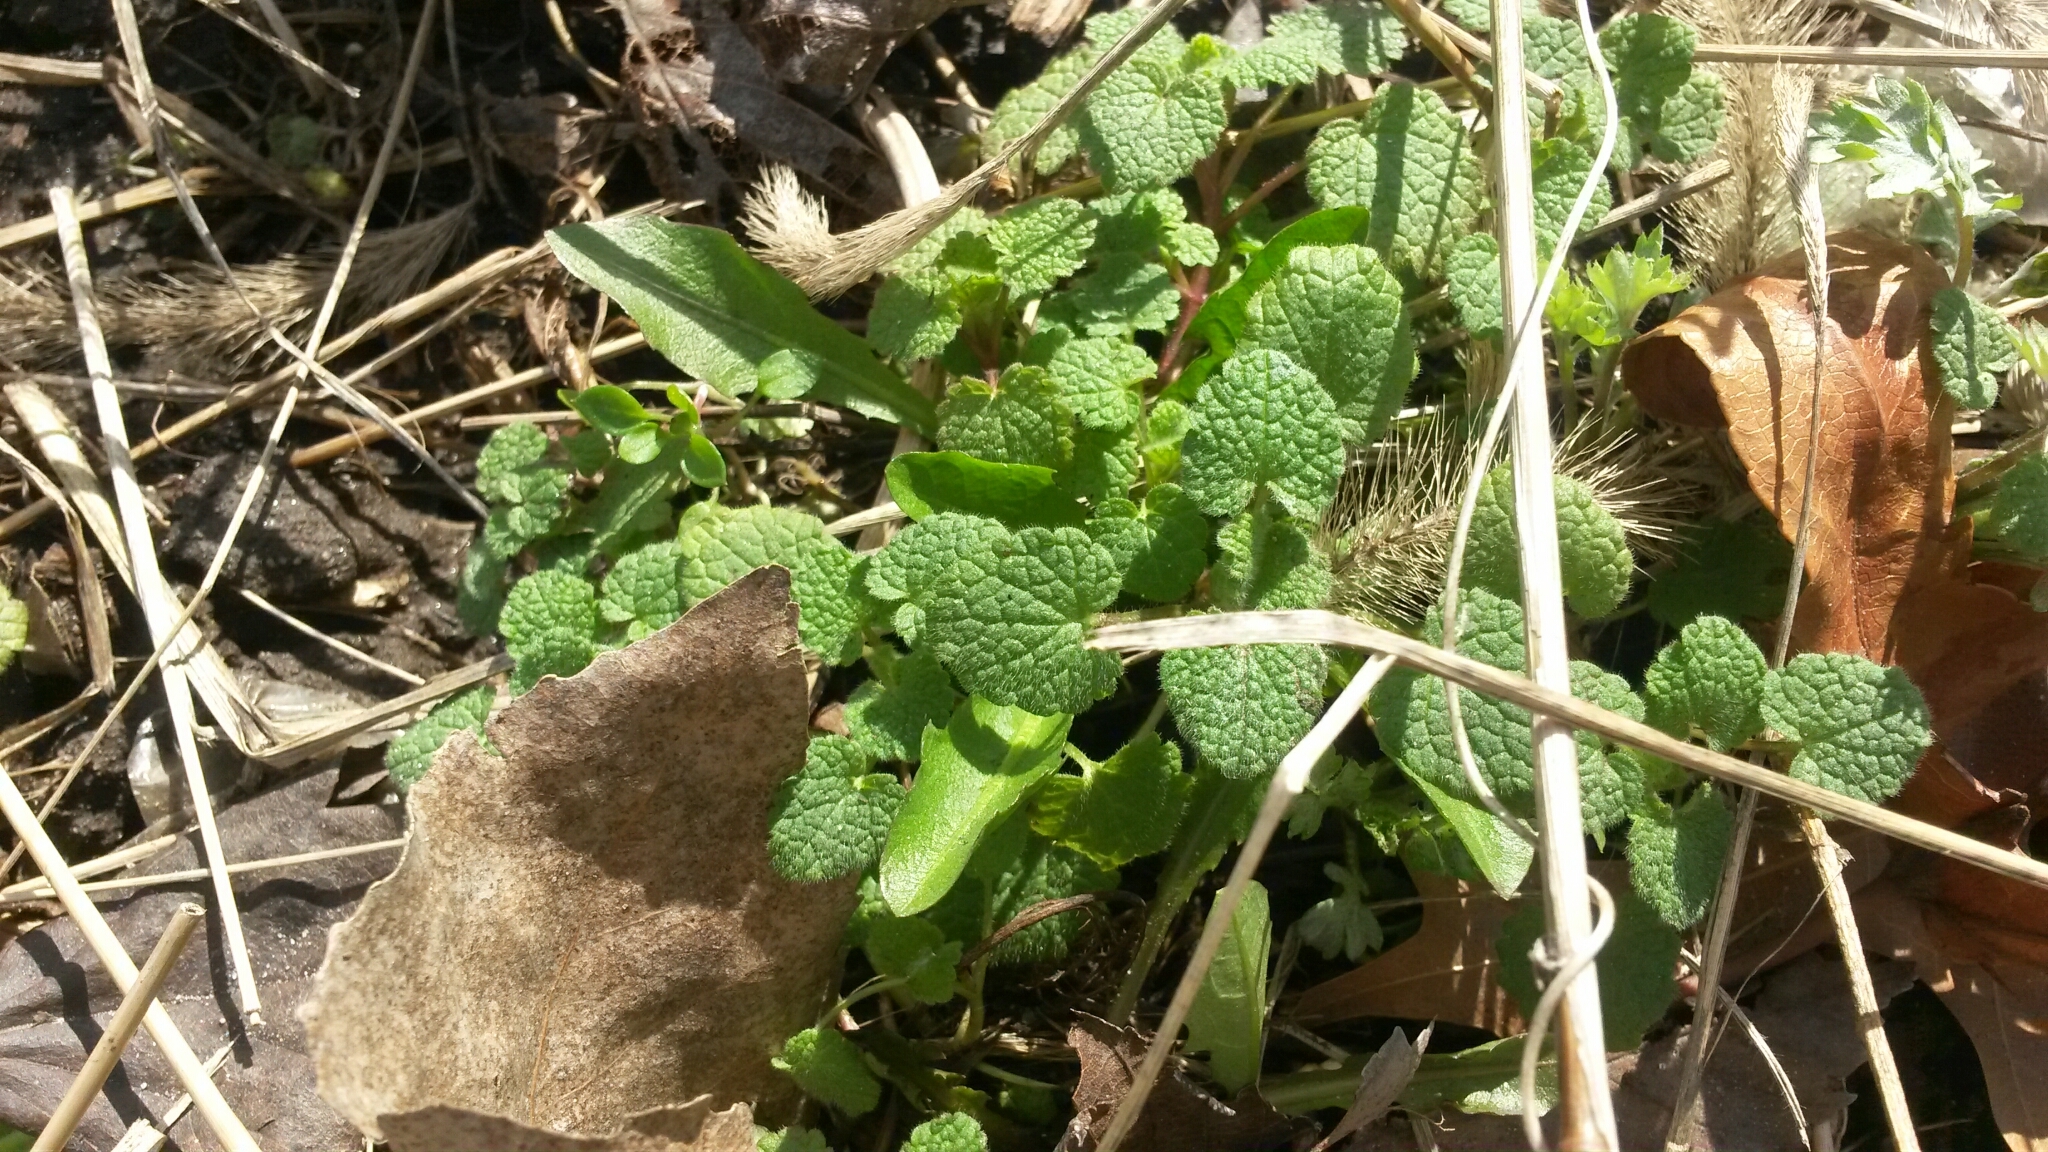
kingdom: Plantae
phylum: Tracheophyta
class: Magnoliopsida
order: Lamiales
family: Lamiaceae
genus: Lamium
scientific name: Lamium purpureum
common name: Red dead-nettle
